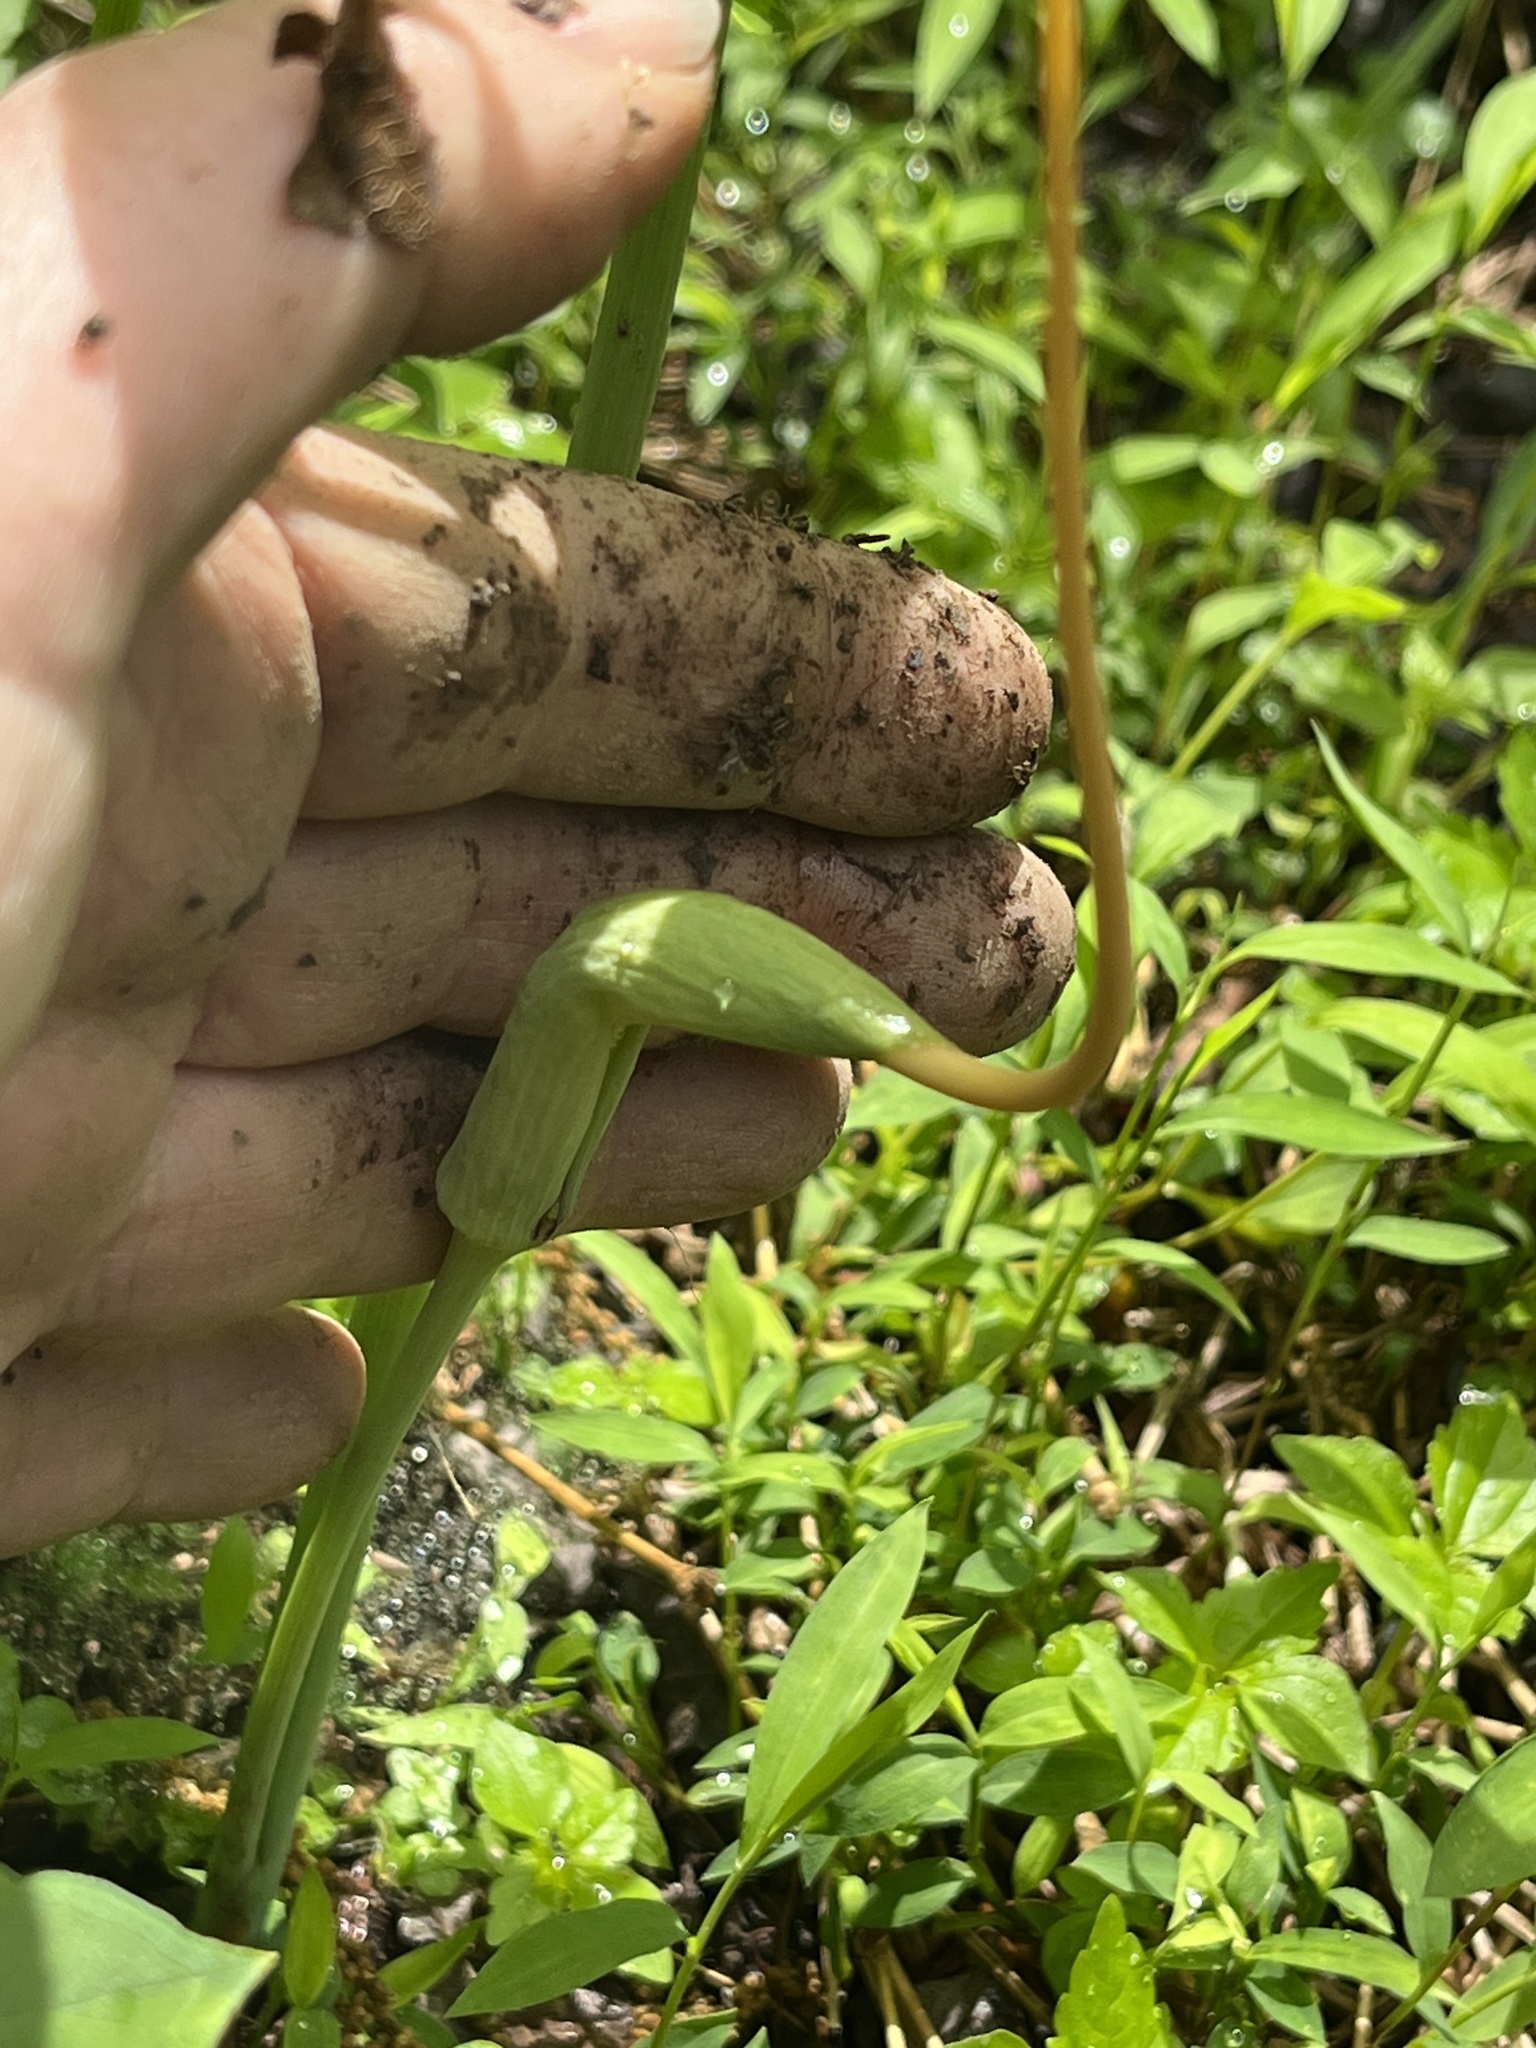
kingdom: Plantae
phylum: Tracheophyta
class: Liliopsida
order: Alismatales
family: Araceae
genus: Arisaema
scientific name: Arisaema dracontium
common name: Dragon-arum
